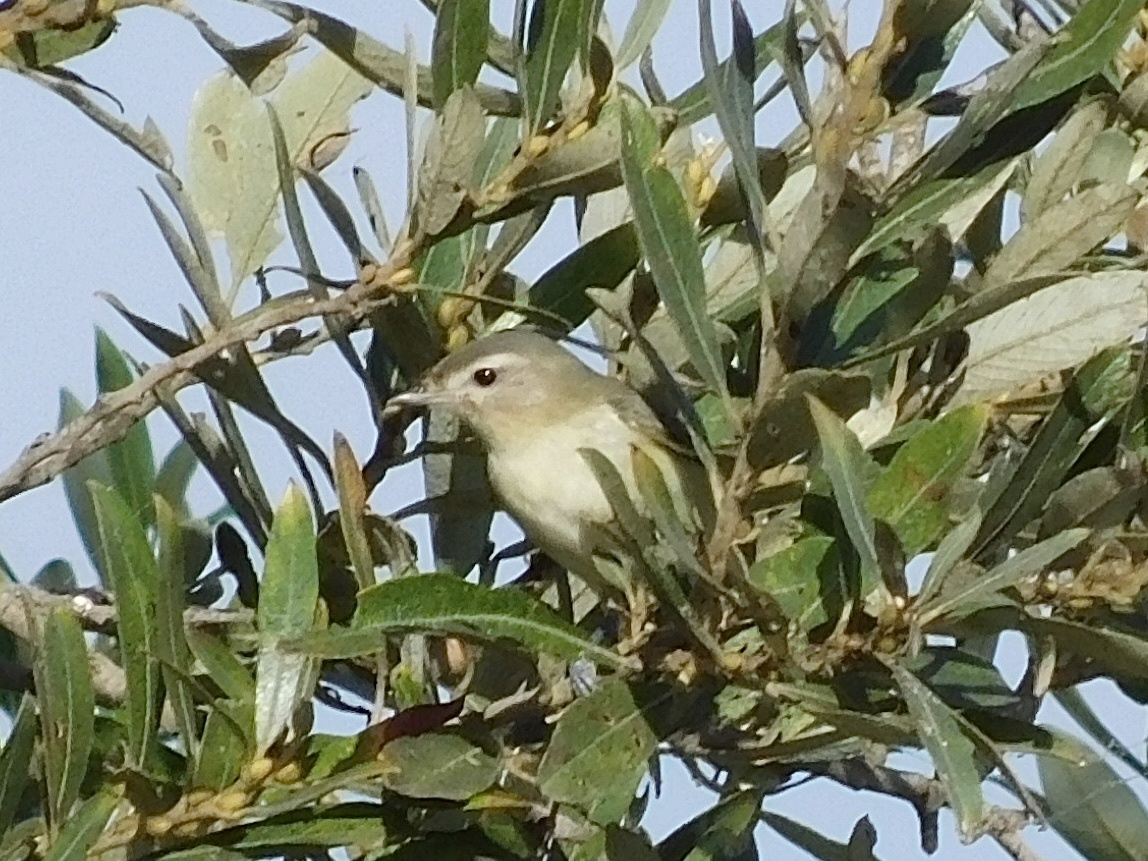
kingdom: Animalia
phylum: Chordata
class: Aves
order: Passeriformes
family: Vireonidae
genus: Vireo
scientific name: Vireo gilvus
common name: Warbling vireo
